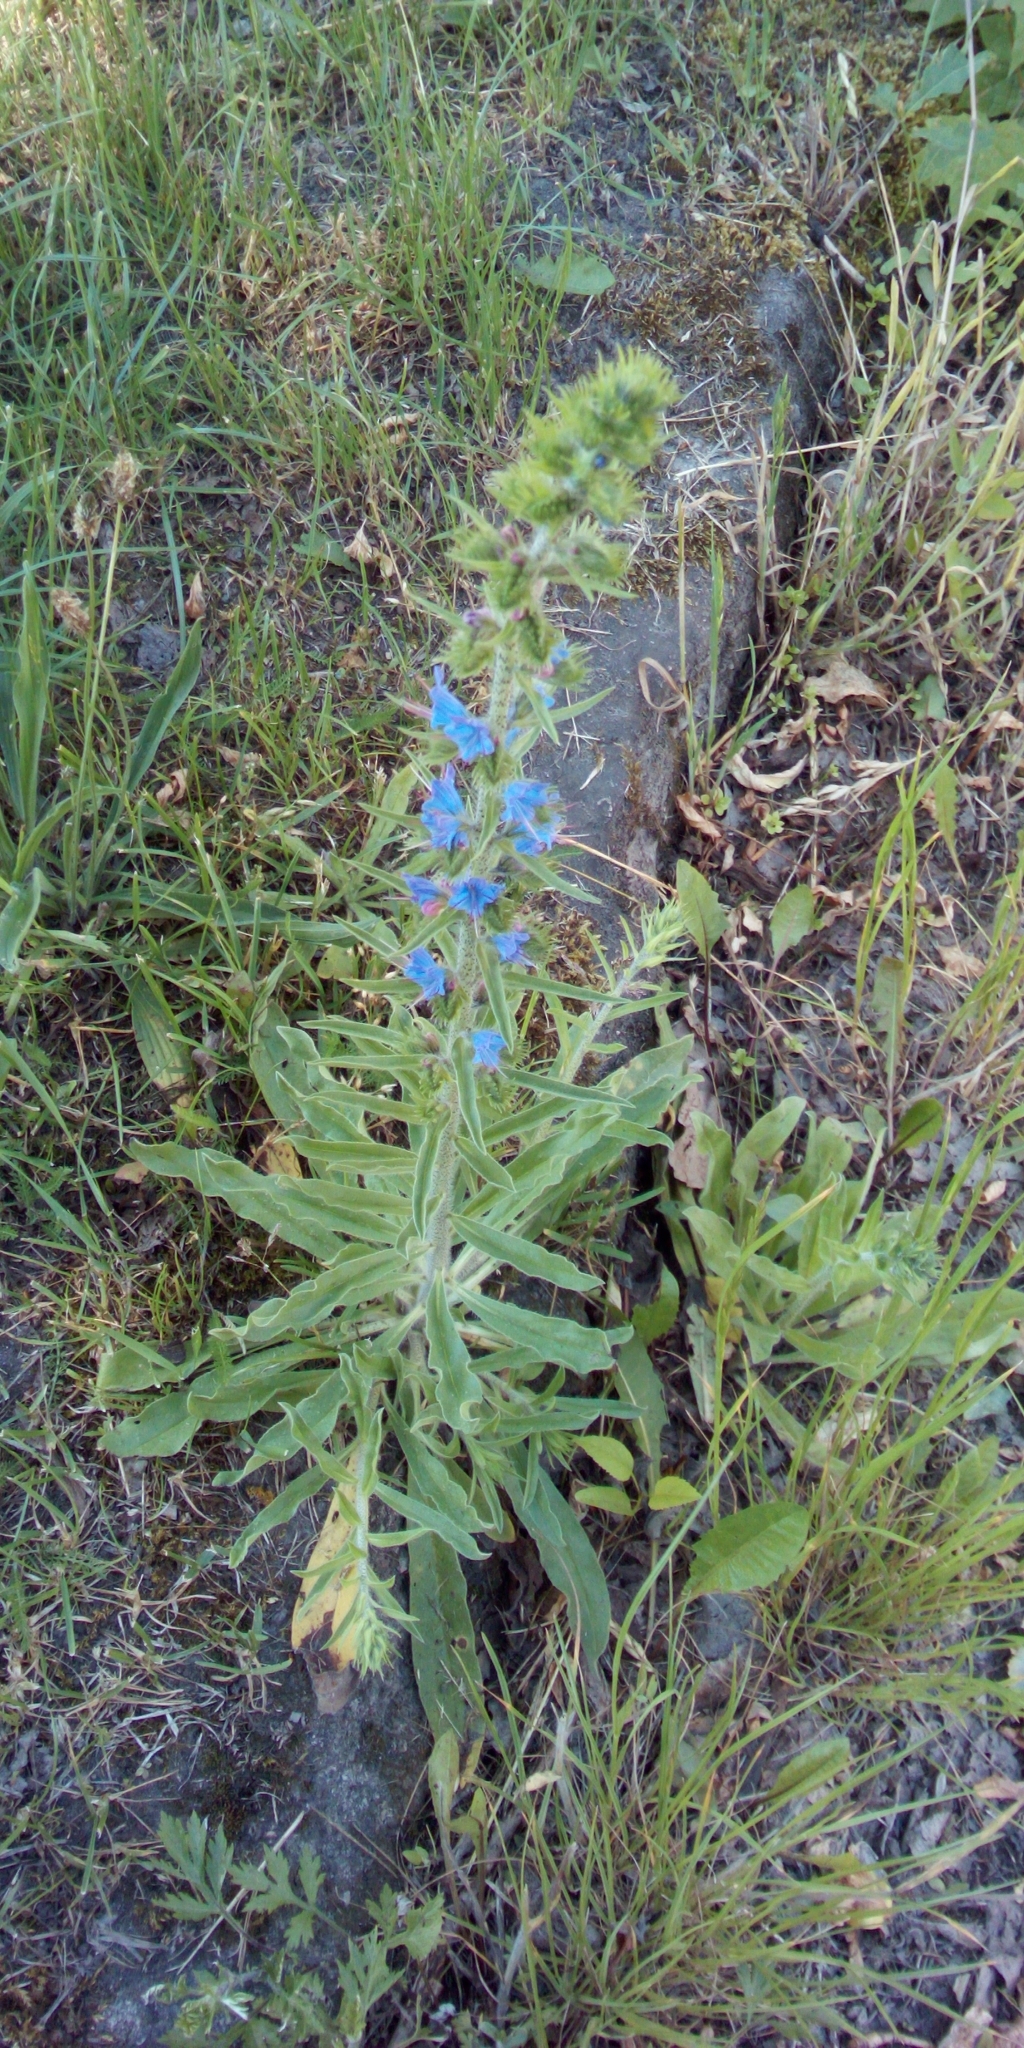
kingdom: Plantae
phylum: Tracheophyta
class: Magnoliopsida
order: Boraginales
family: Boraginaceae
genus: Echium
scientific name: Echium vulgare
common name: Common viper's bugloss
